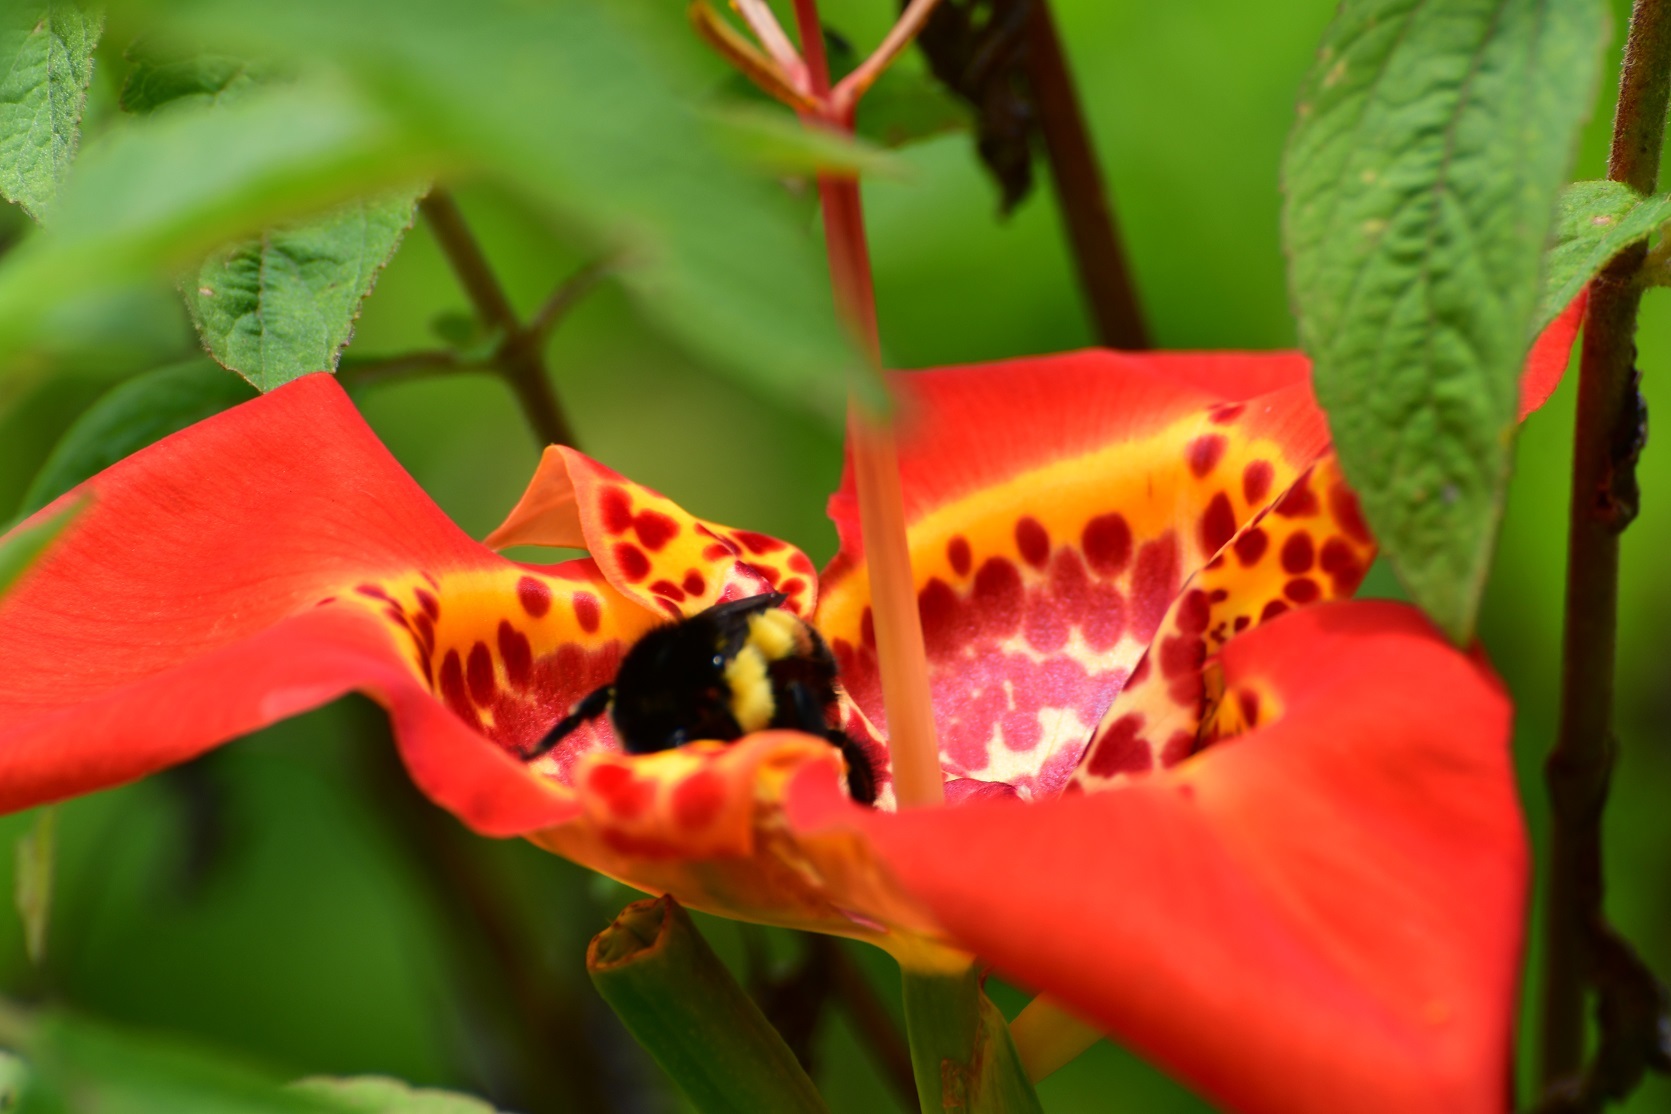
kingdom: Animalia
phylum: Arthropoda
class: Insecta
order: Hymenoptera
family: Apidae
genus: Bombus
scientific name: Bombus ephippiatus
